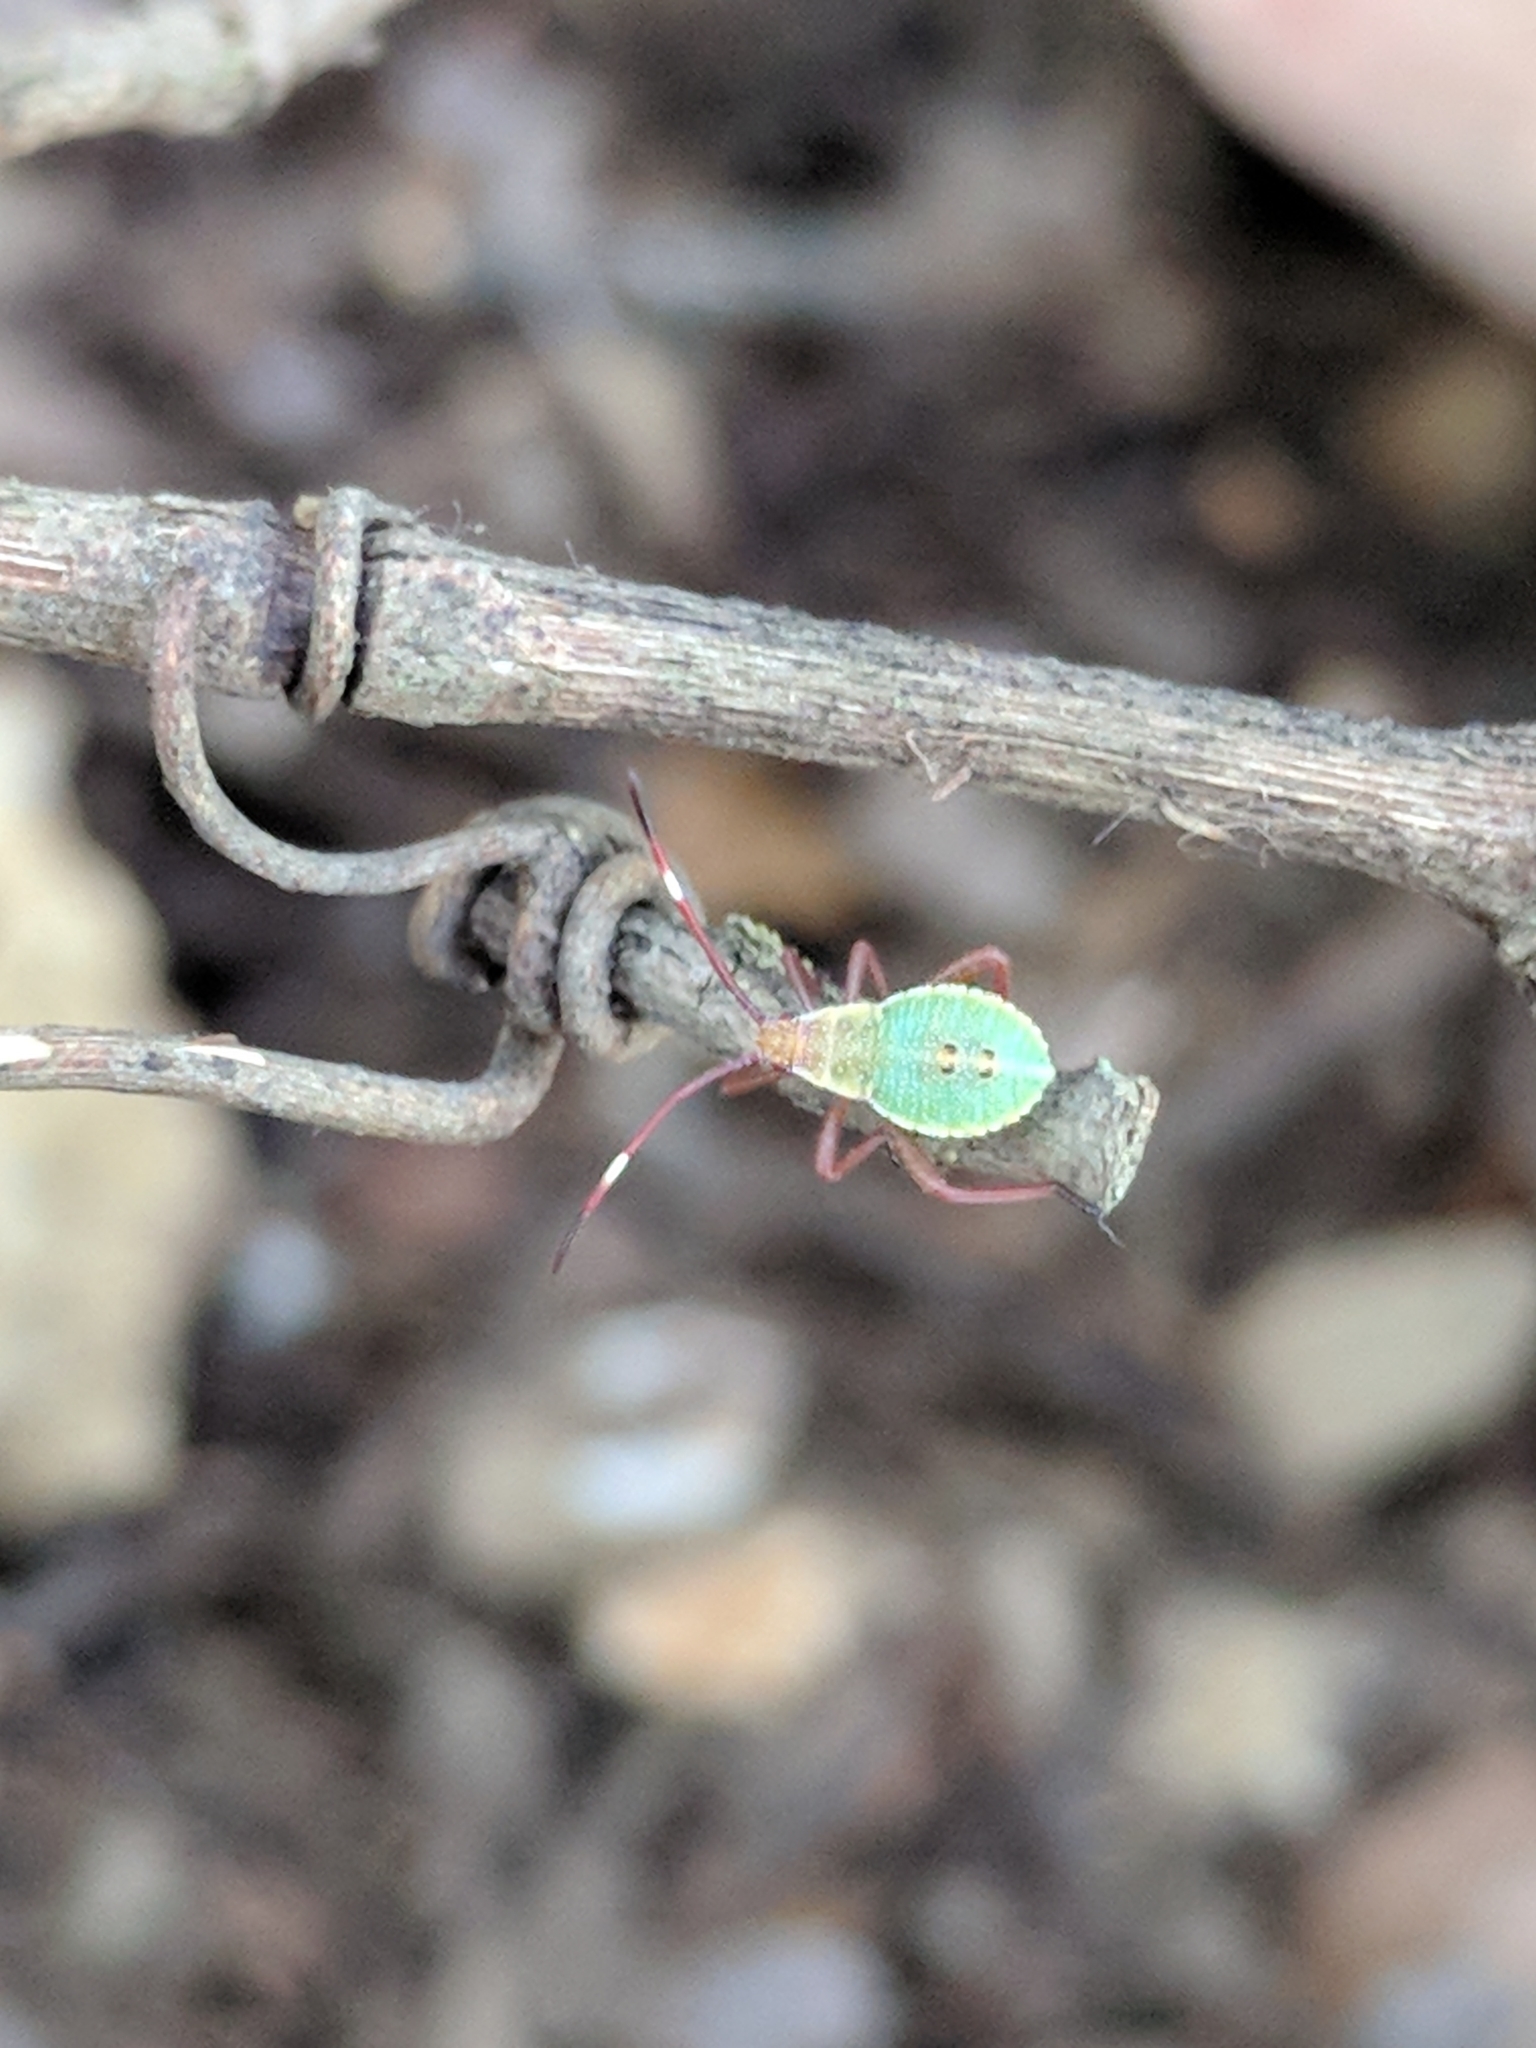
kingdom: Animalia
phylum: Arthropoda
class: Insecta
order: Hemiptera
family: Coreidae
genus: Mozena
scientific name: Mozena lunata
